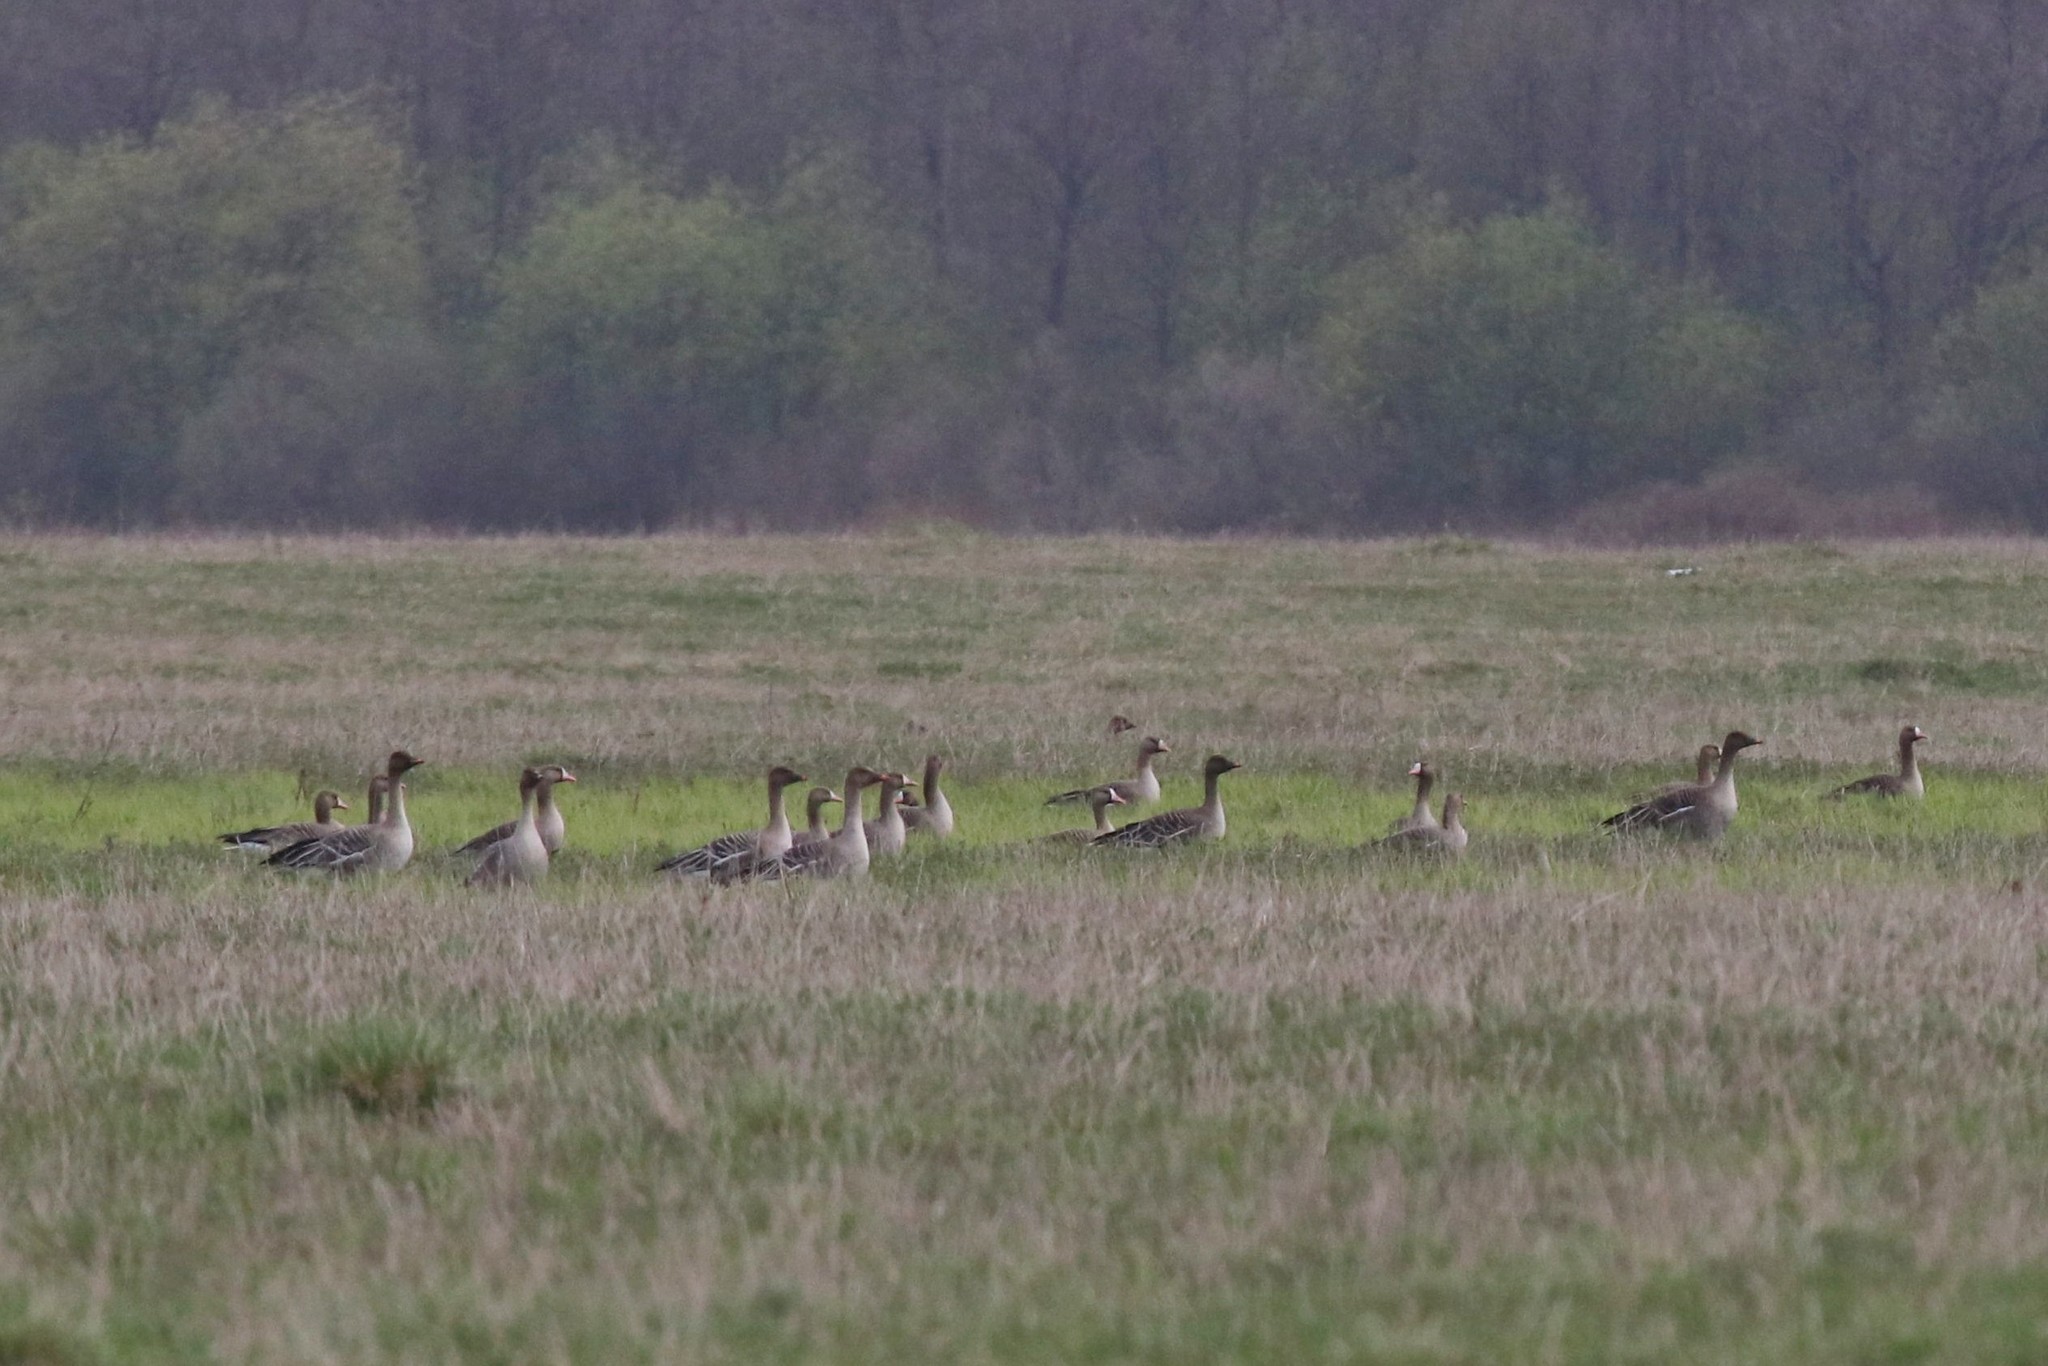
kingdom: Animalia
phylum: Chordata
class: Aves
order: Anseriformes
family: Anatidae
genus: Anser
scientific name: Anser fabalis
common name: Bean goose
